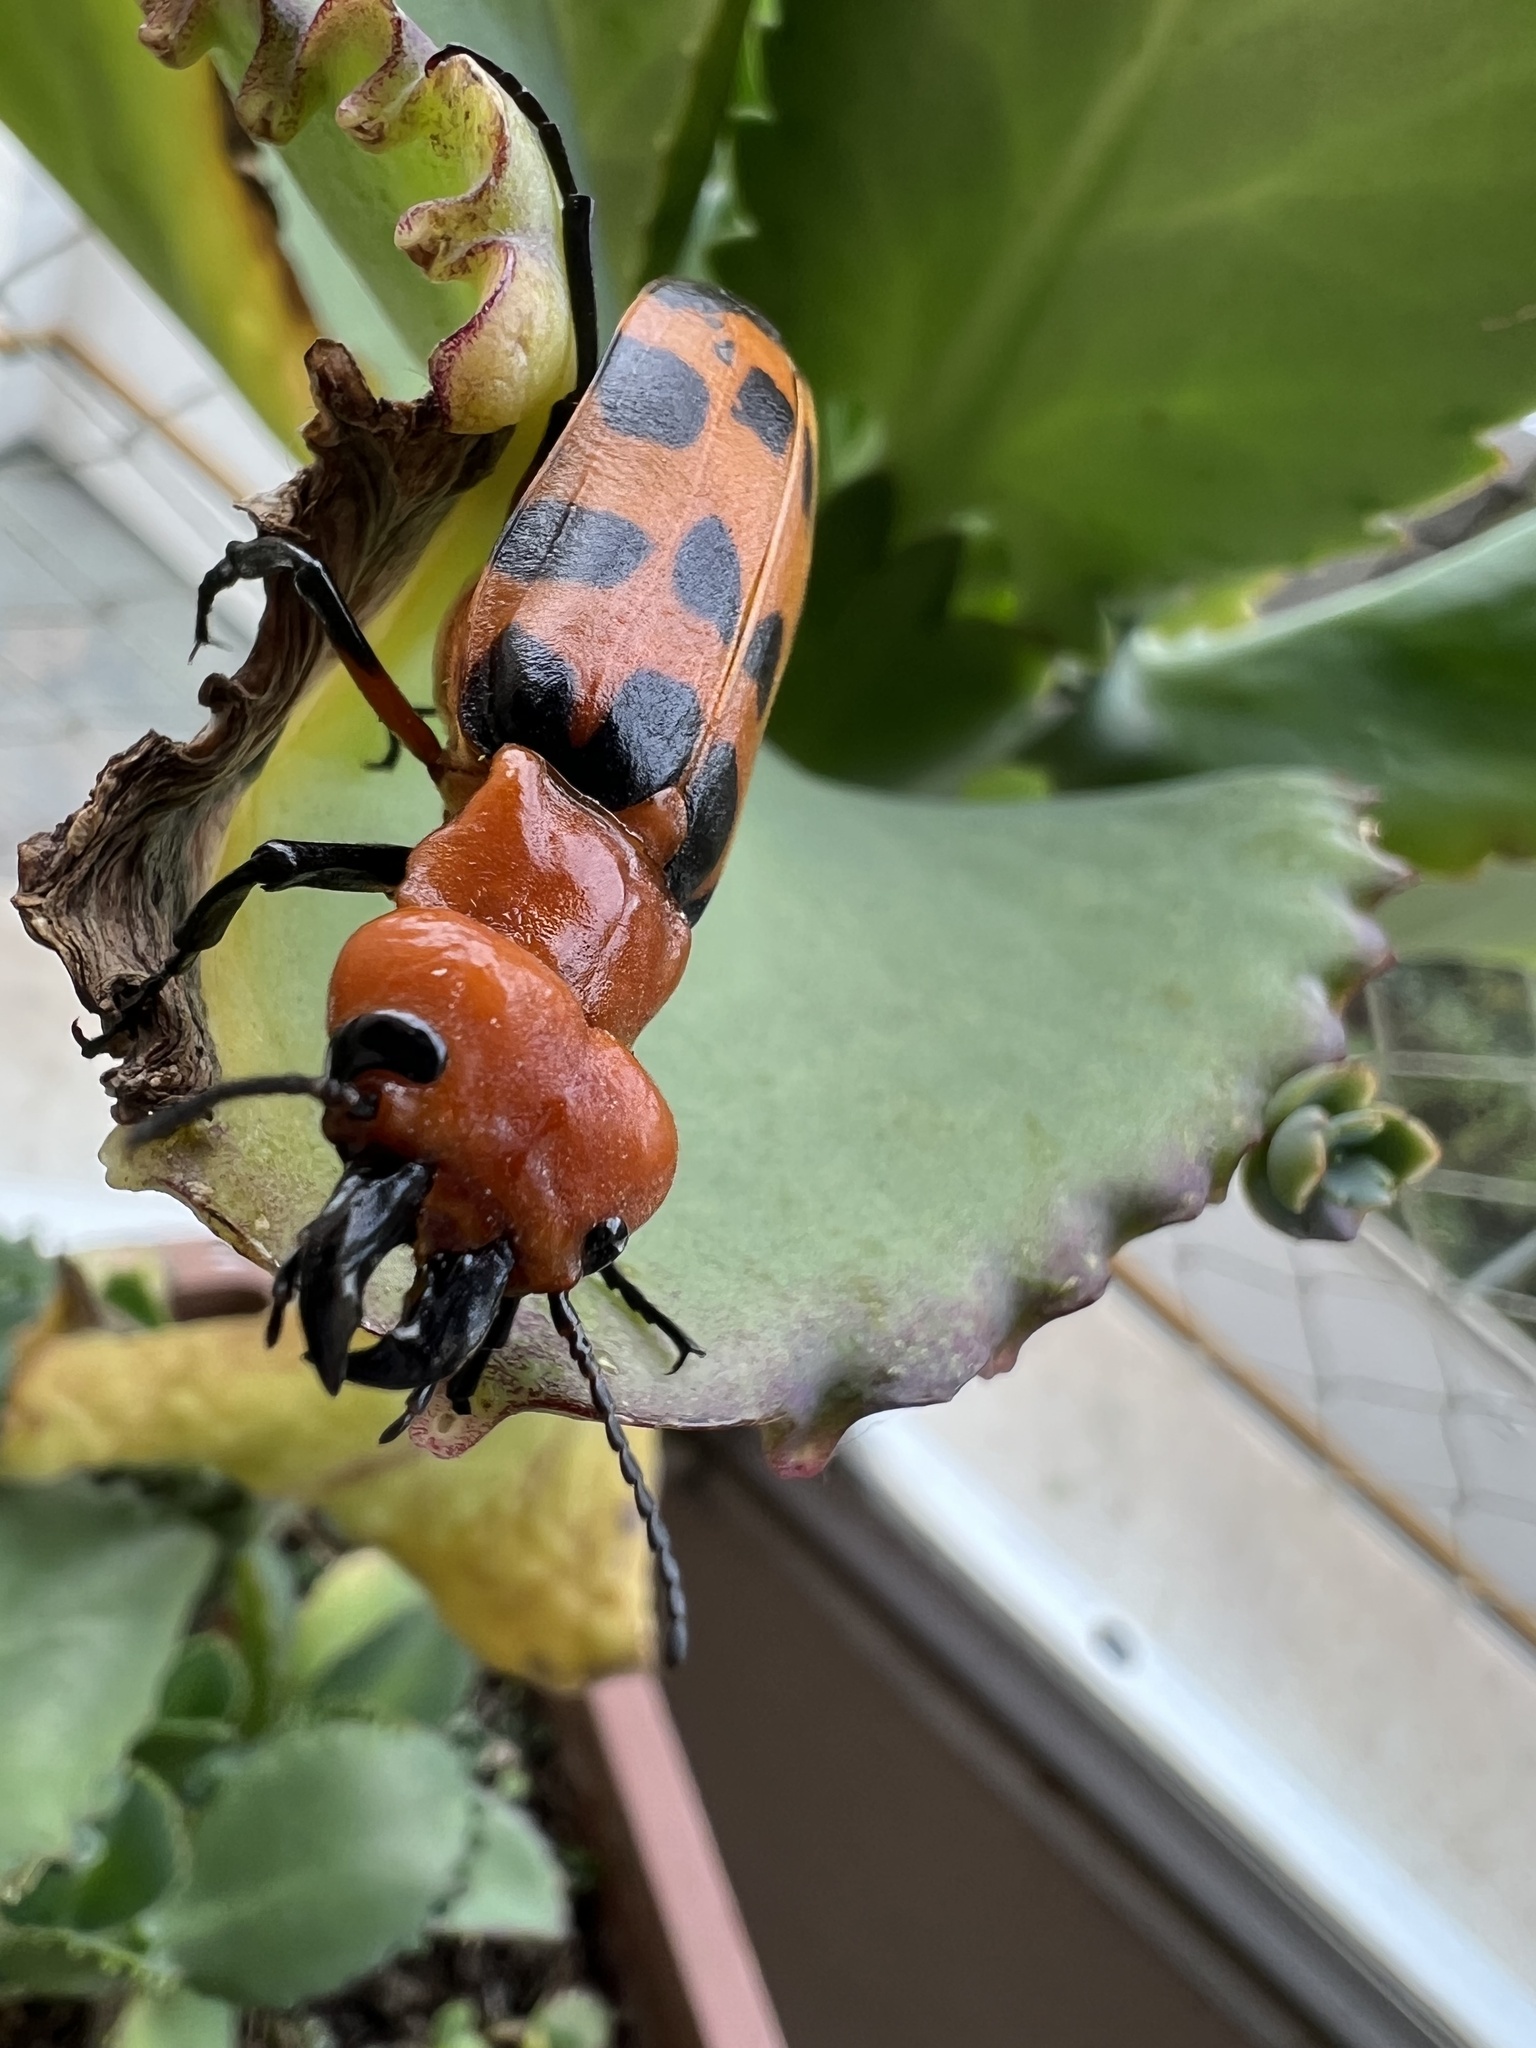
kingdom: Animalia
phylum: Arthropoda
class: Insecta
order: Coleoptera
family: Meloidae
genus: Cissites
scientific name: Cissites maculata
